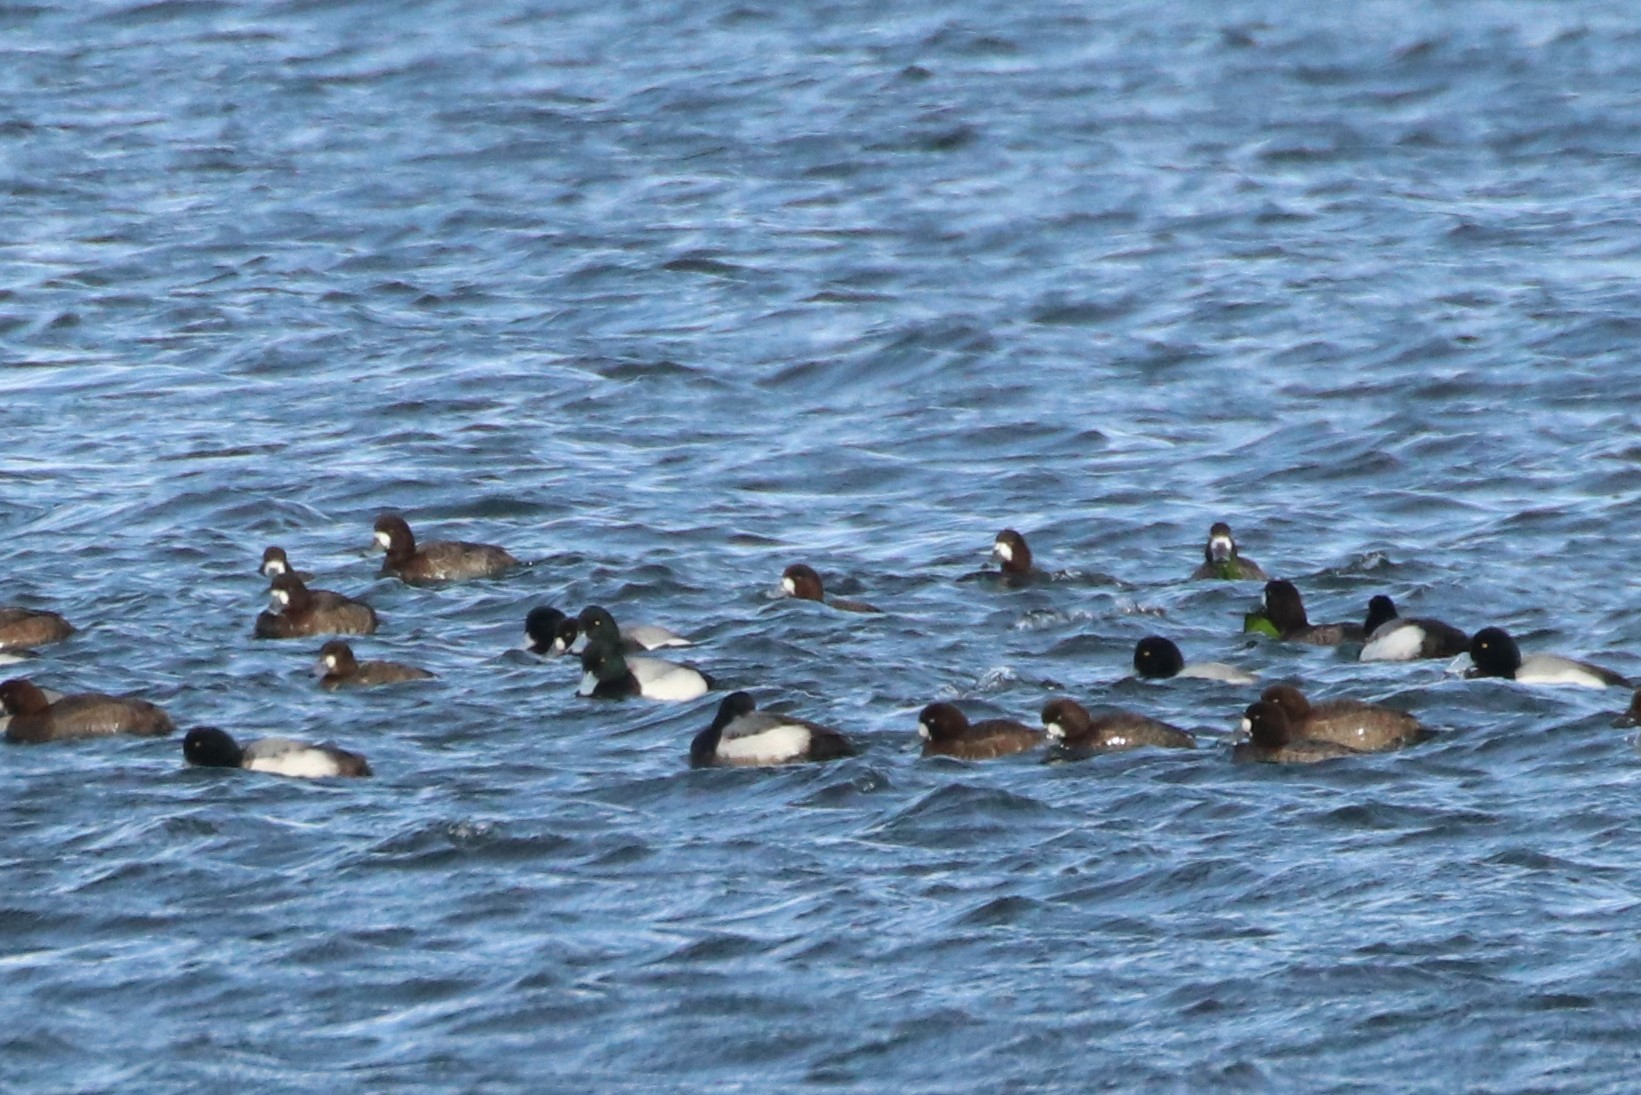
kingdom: Animalia
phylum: Chordata
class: Aves
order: Anseriformes
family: Anatidae
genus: Aythya
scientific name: Aythya marila
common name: Greater scaup
